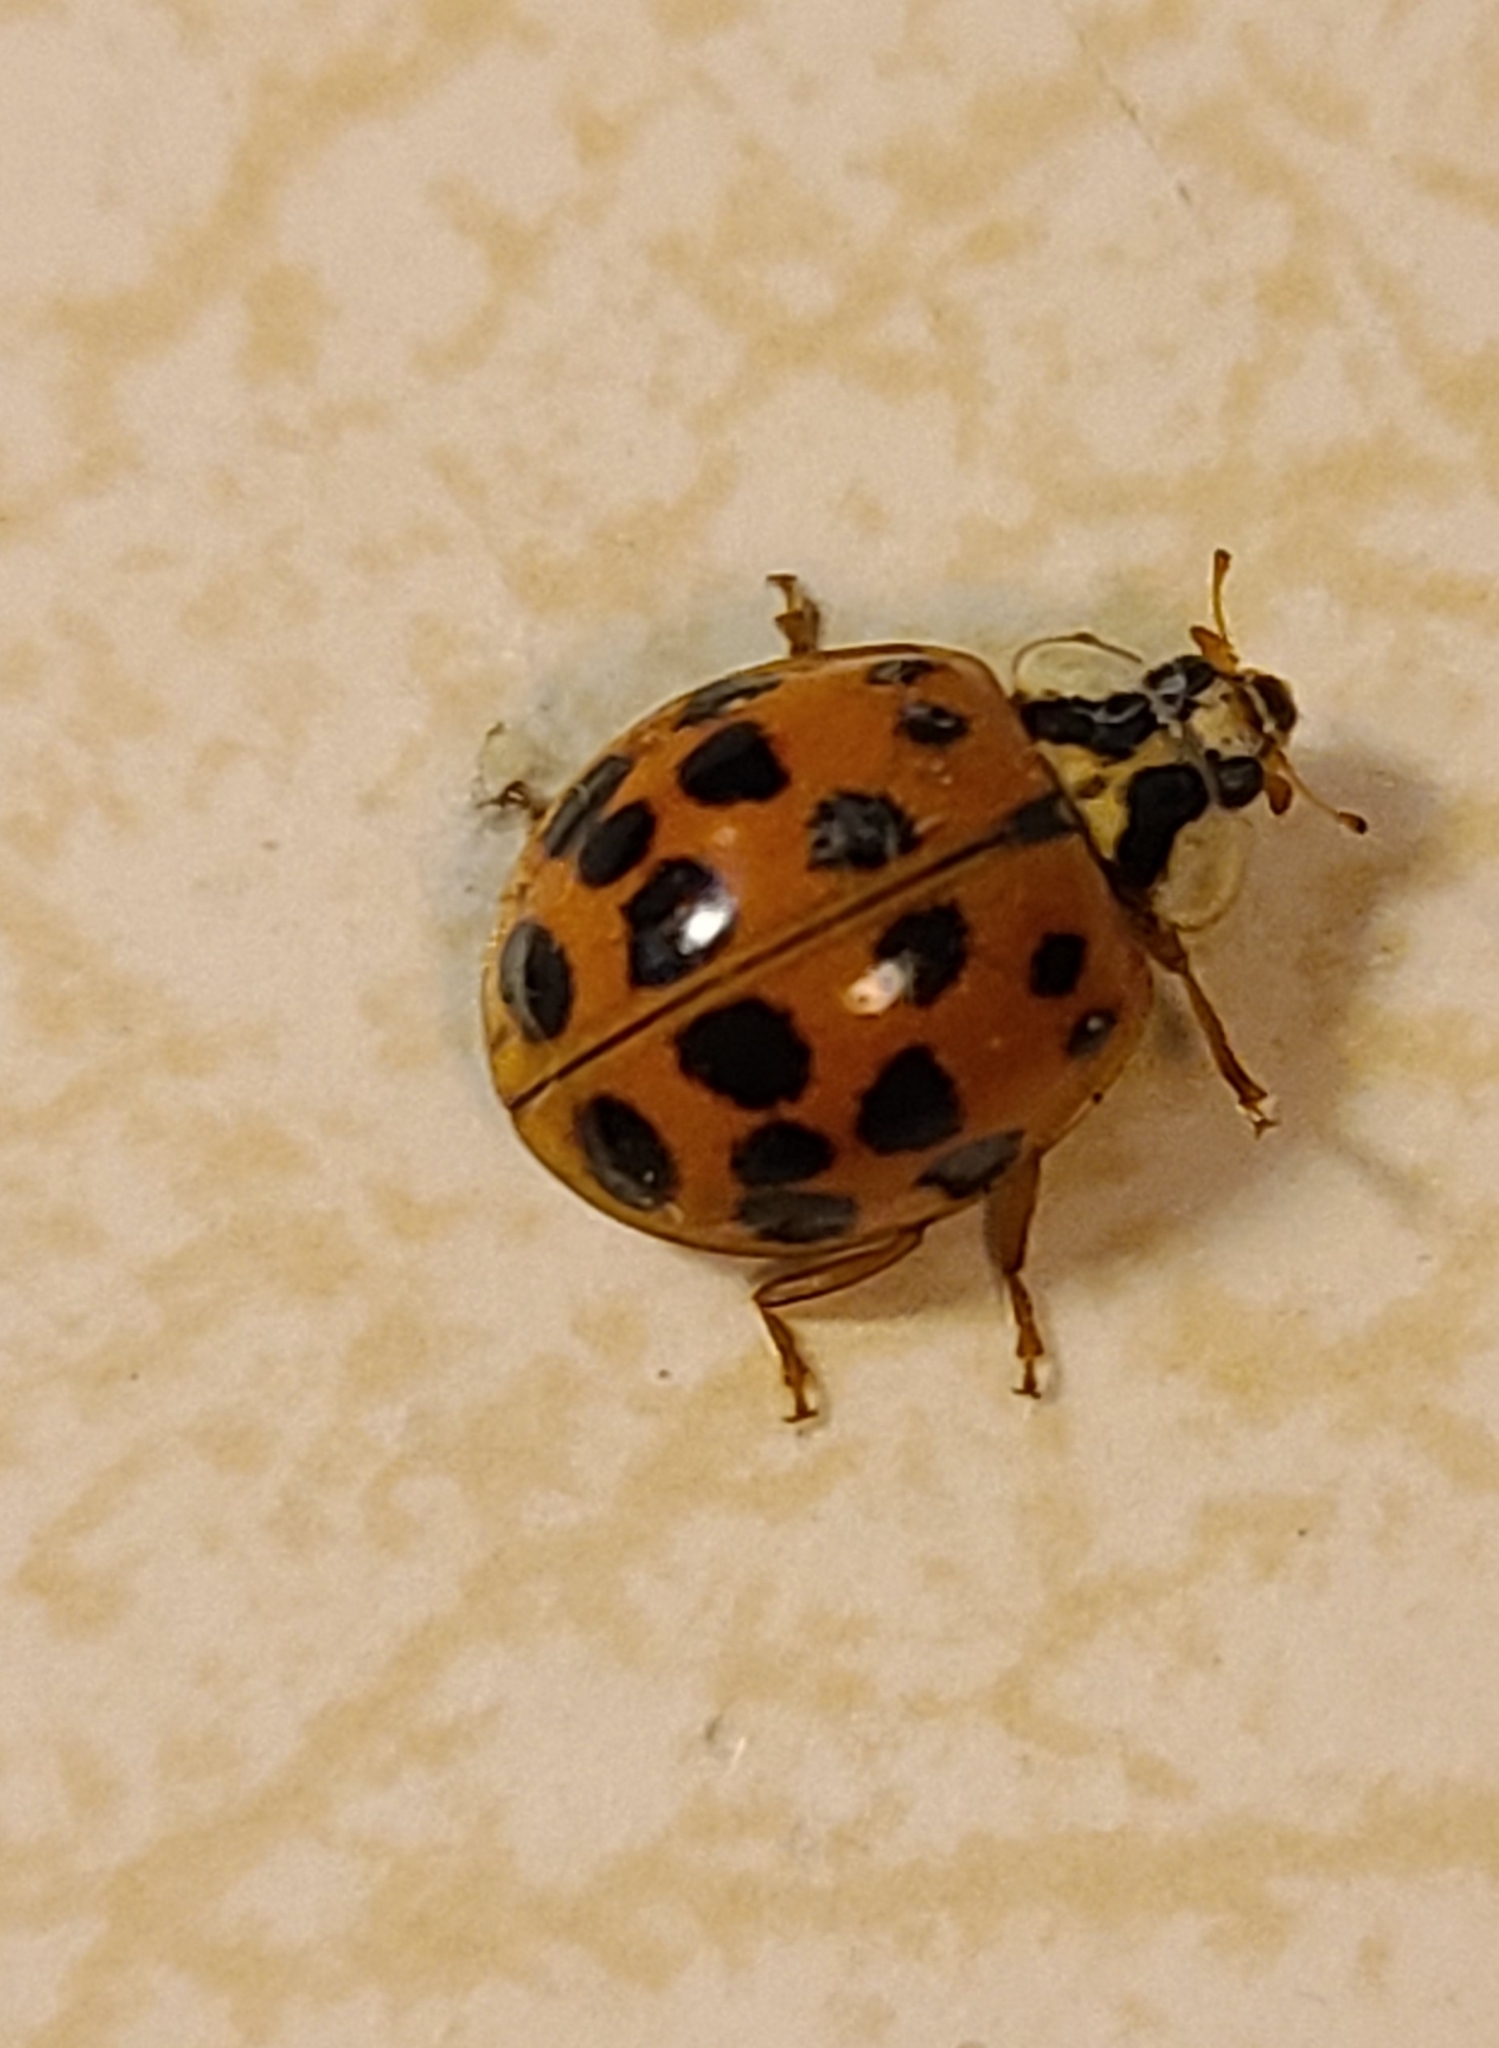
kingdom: Animalia
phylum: Arthropoda
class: Insecta
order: Coleoptera
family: Coccinellidae
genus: Harmonia
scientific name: Harmonia axyridis
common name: Harlequin ladybird
